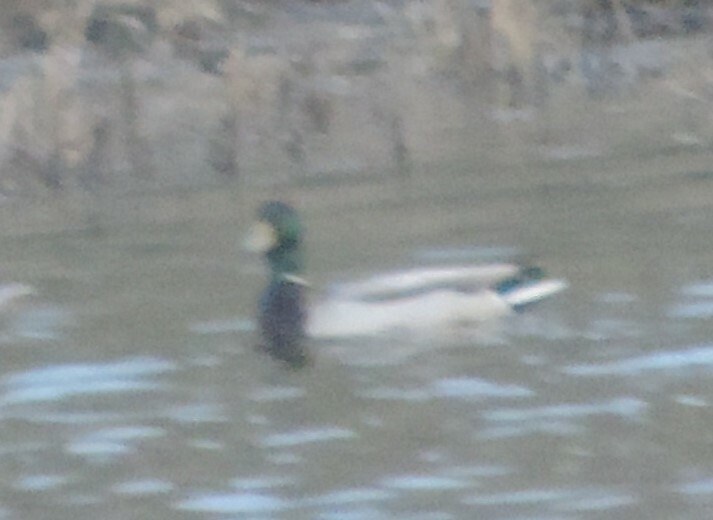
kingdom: Animalia
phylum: Chordata
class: Aves
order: Anseriformes
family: Anatidae
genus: Anas
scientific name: Anas platyrhynchos
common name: Mallard
